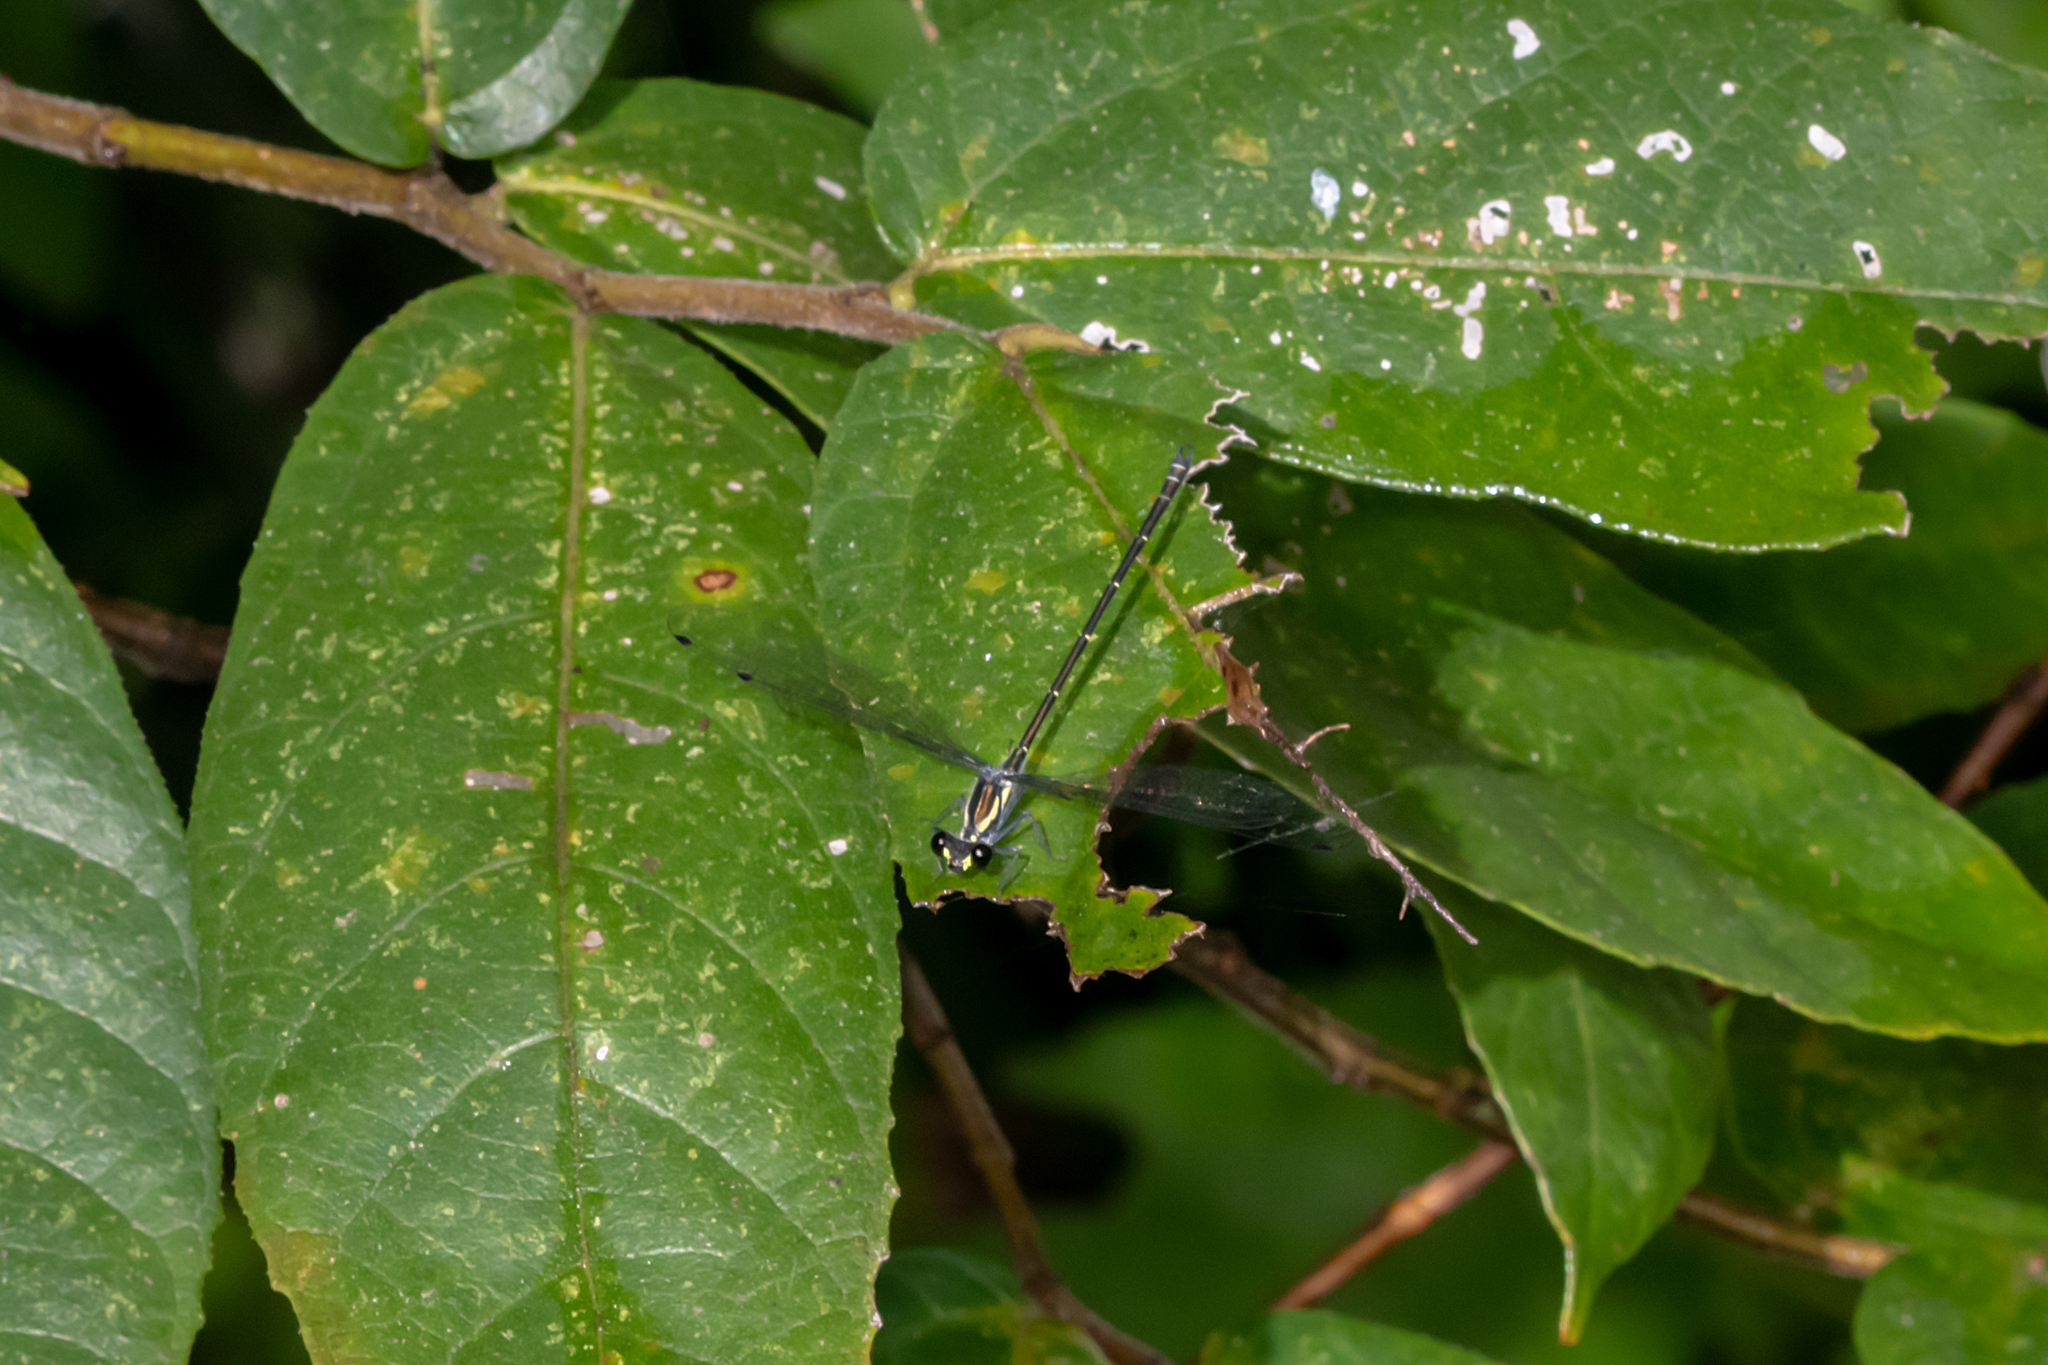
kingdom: Animalia
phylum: Arthropoda
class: Insecta
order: Odonata
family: Argiolestidae
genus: Austroargiolestes
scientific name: Austroargiolestes icteromelas
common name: Common flatwing
